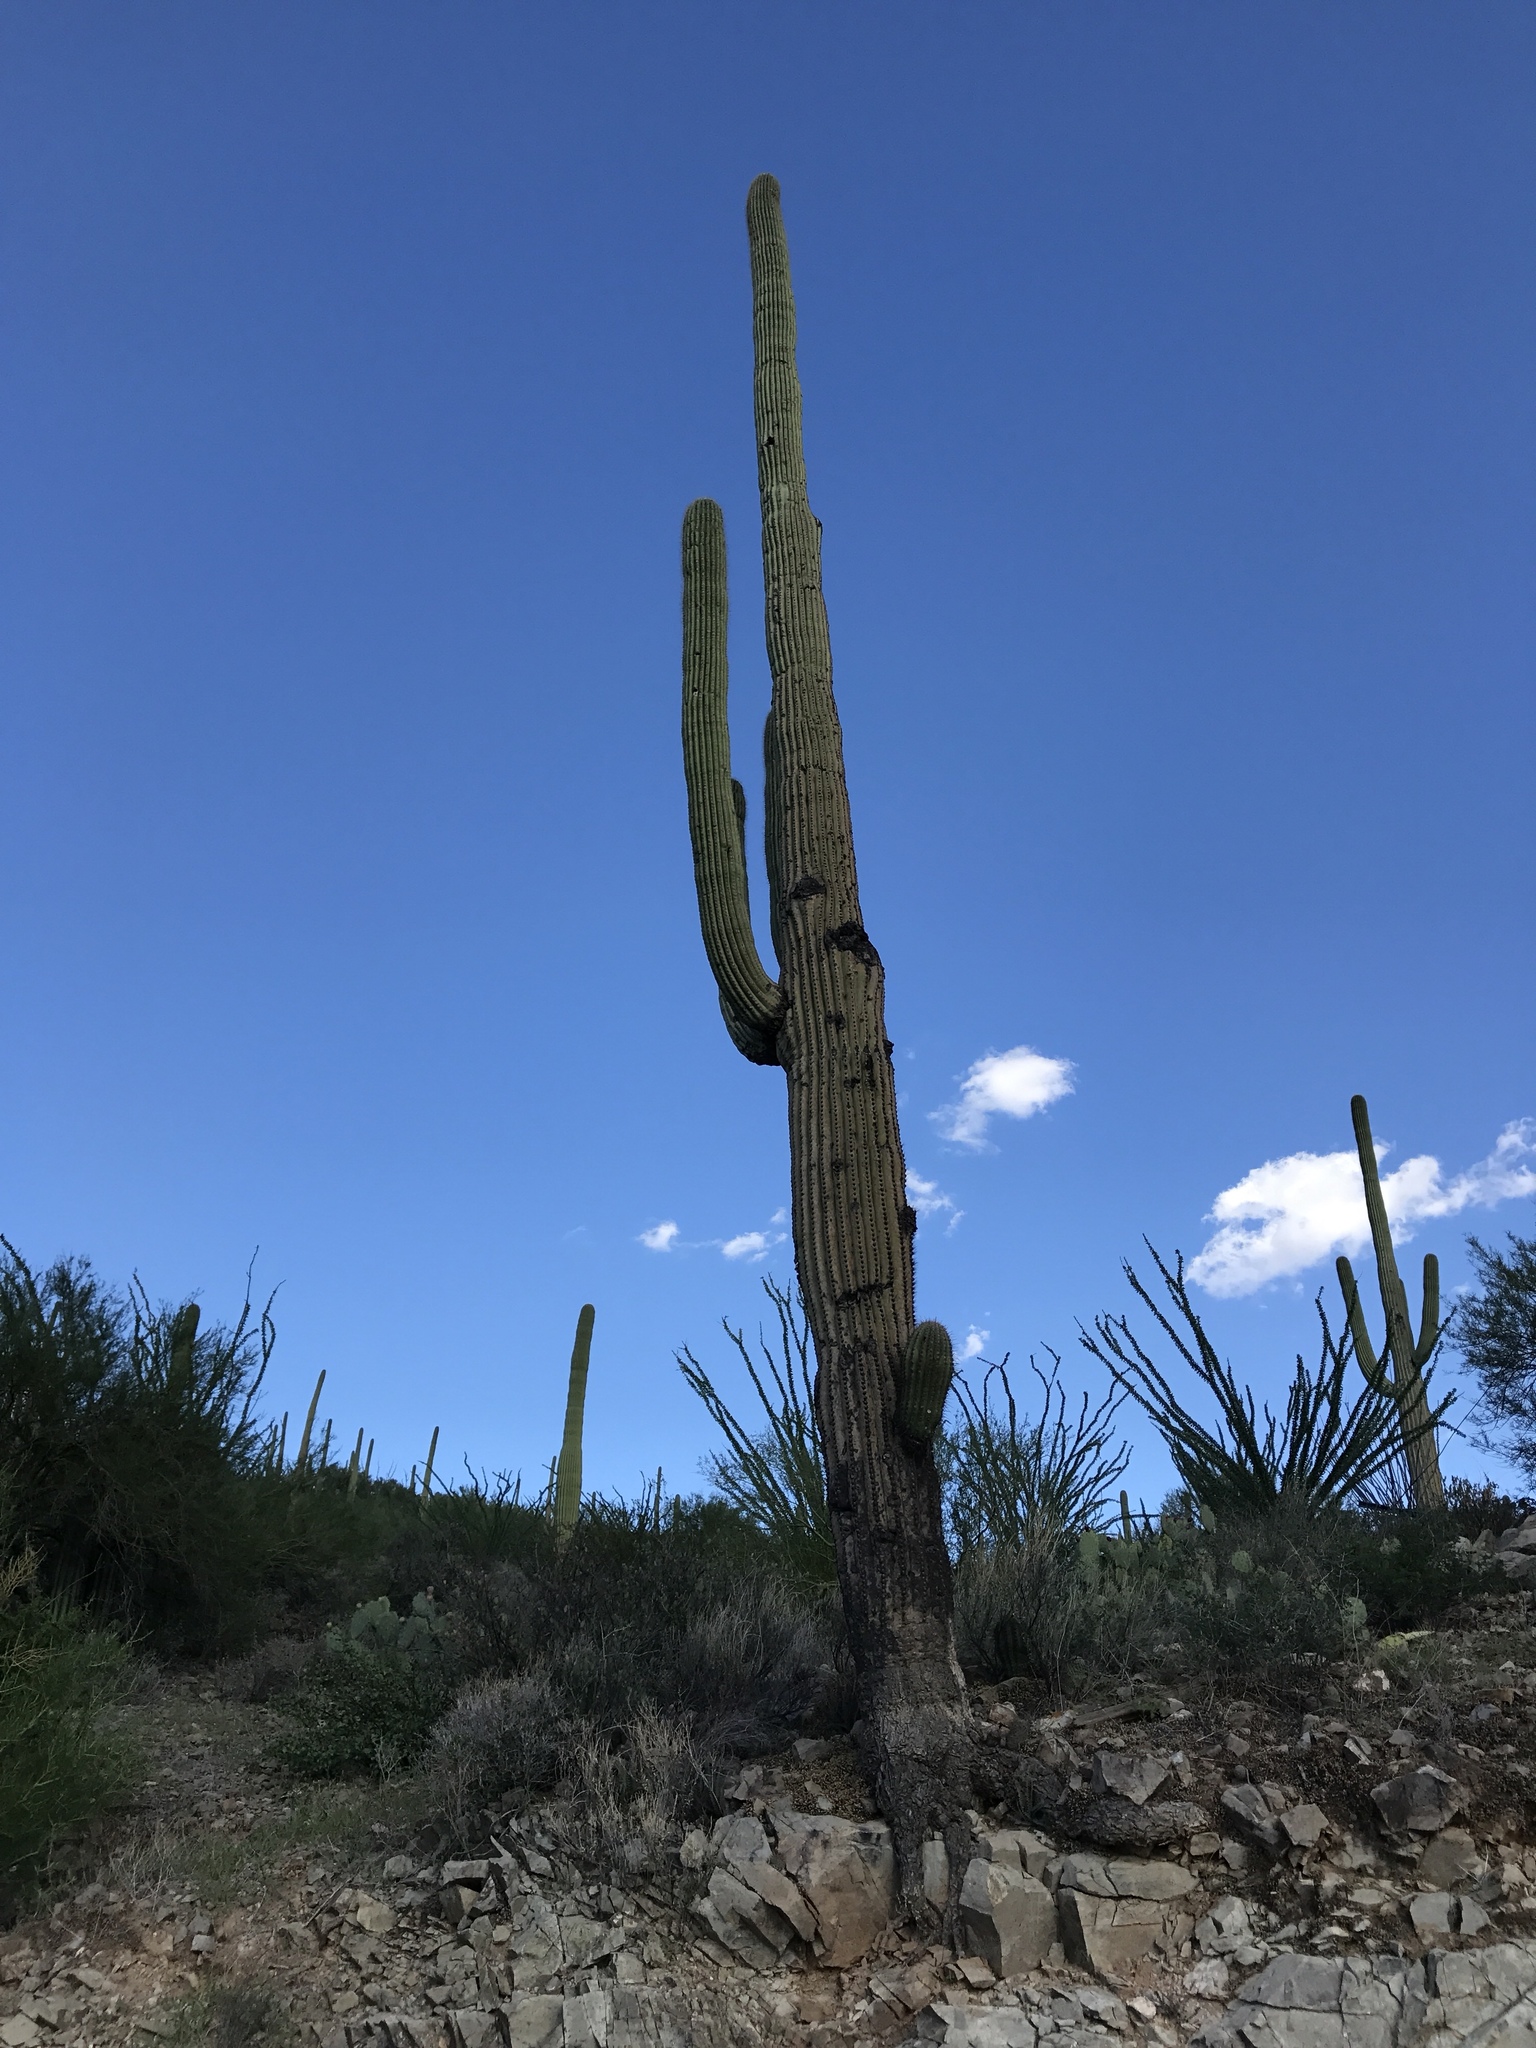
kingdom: Plantae
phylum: Tracheophyta
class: Magnoliopsida
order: Caryophyllales
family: Cactaceae
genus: Carnegiea
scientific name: Carnegiea gigantea
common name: Saguaro
